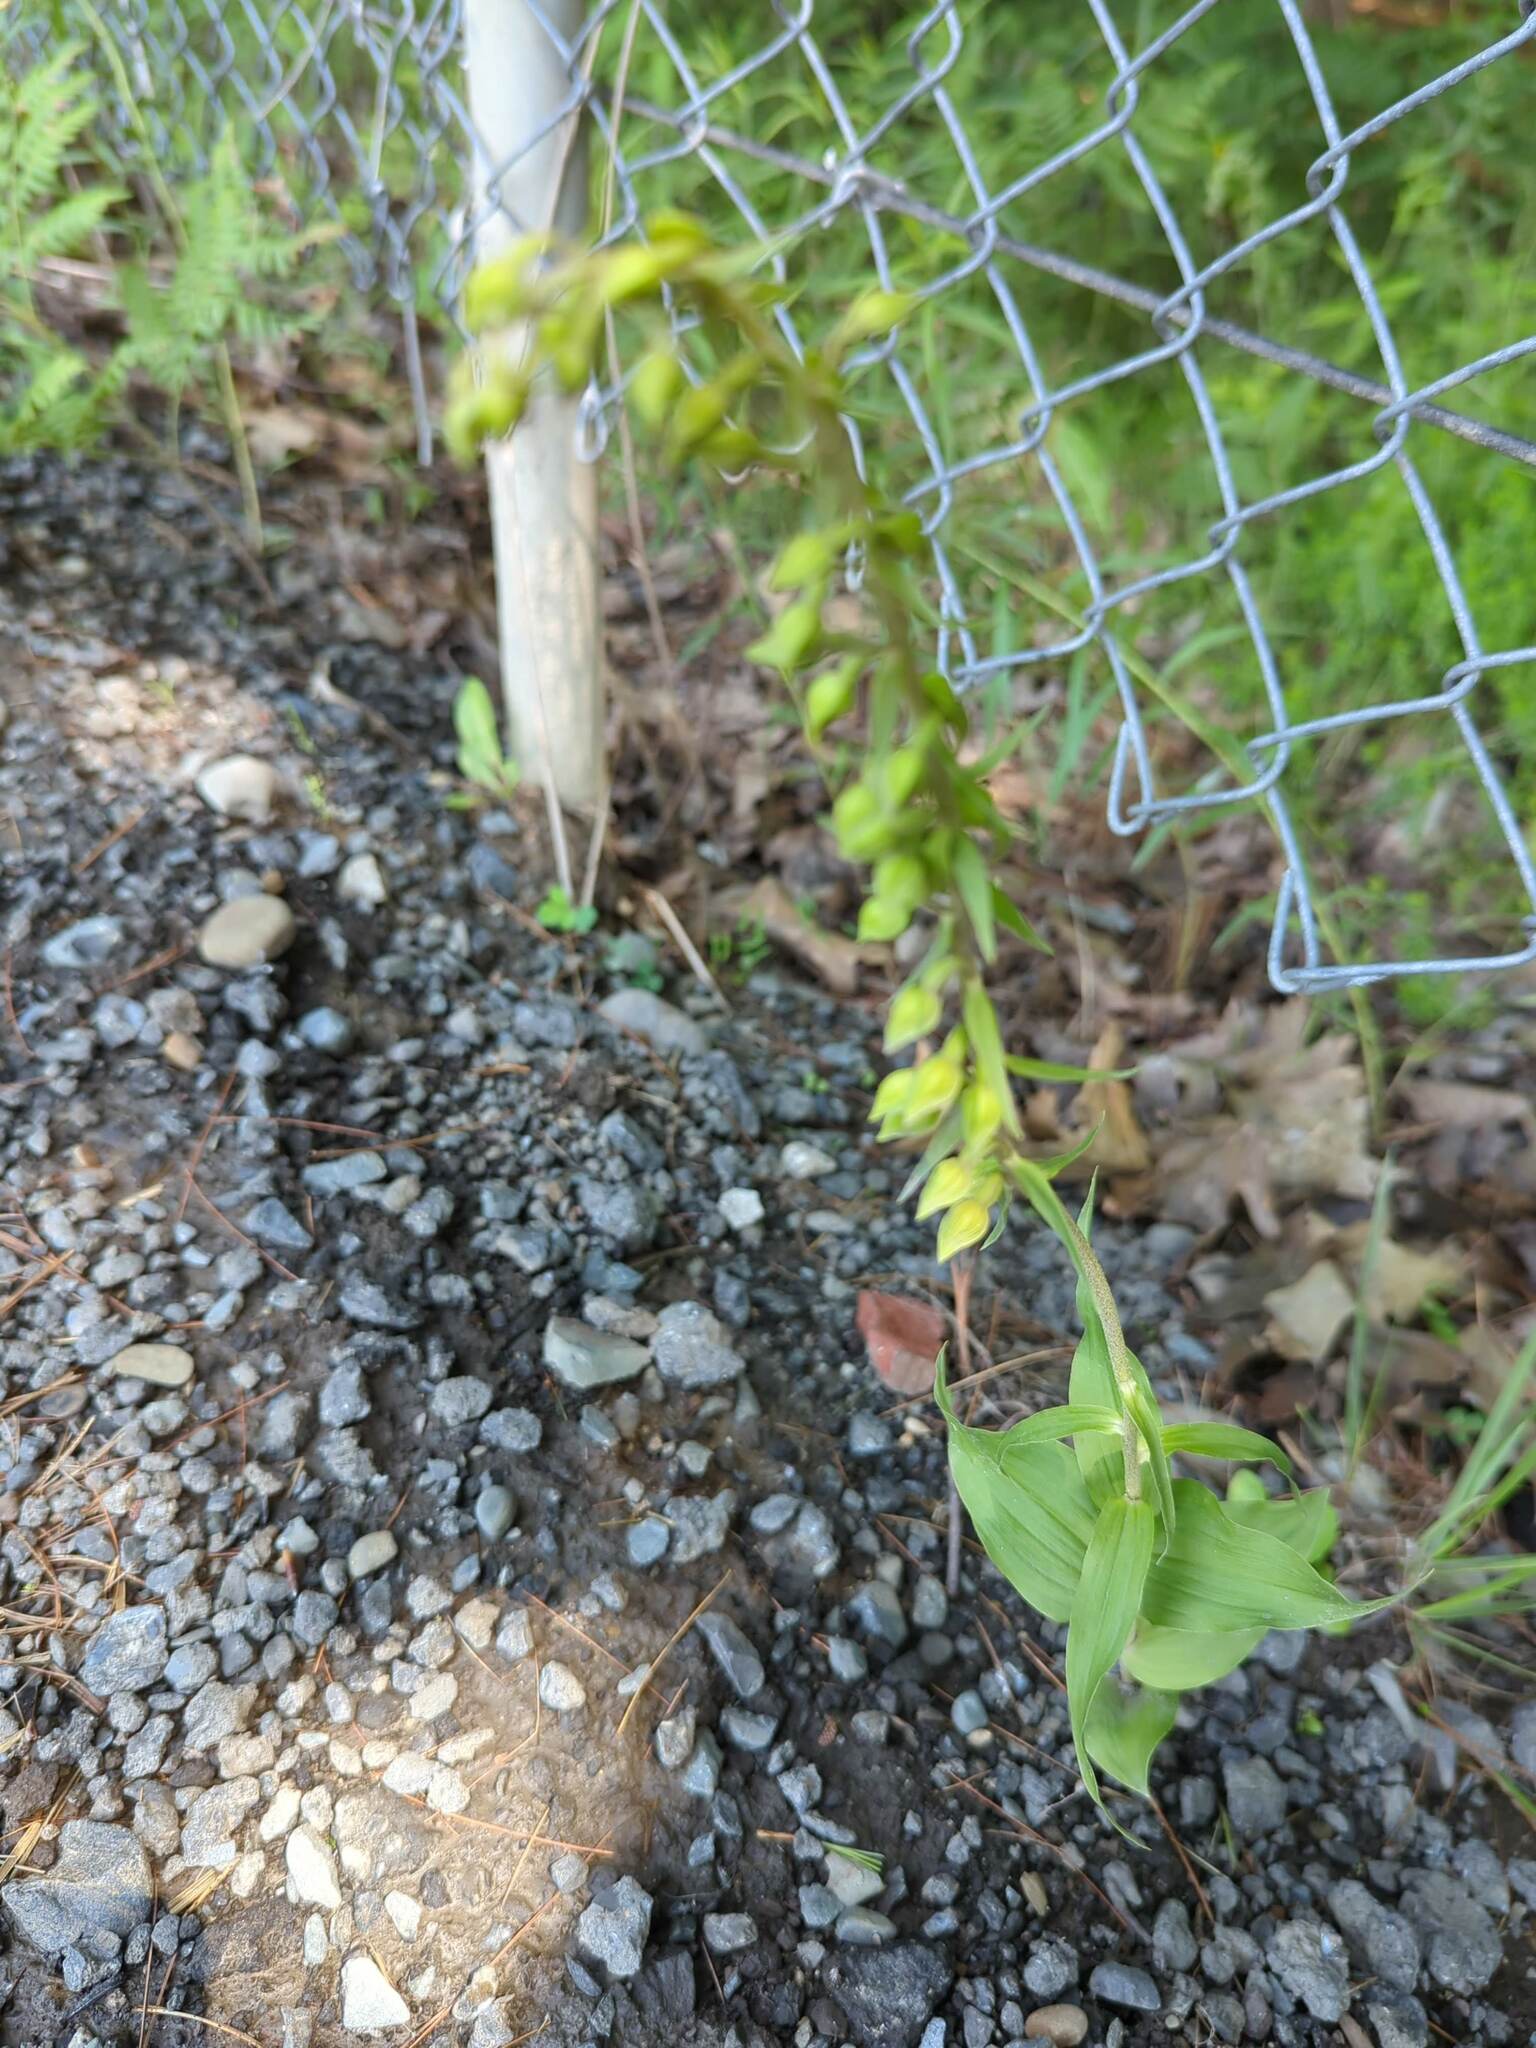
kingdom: Plantae
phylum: Tracheophyta
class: Liliopsida
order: Asparagales
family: Orchidaceae
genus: Epipactis
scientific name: Epipactis helleborine
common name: Broad-leaved helleborine
